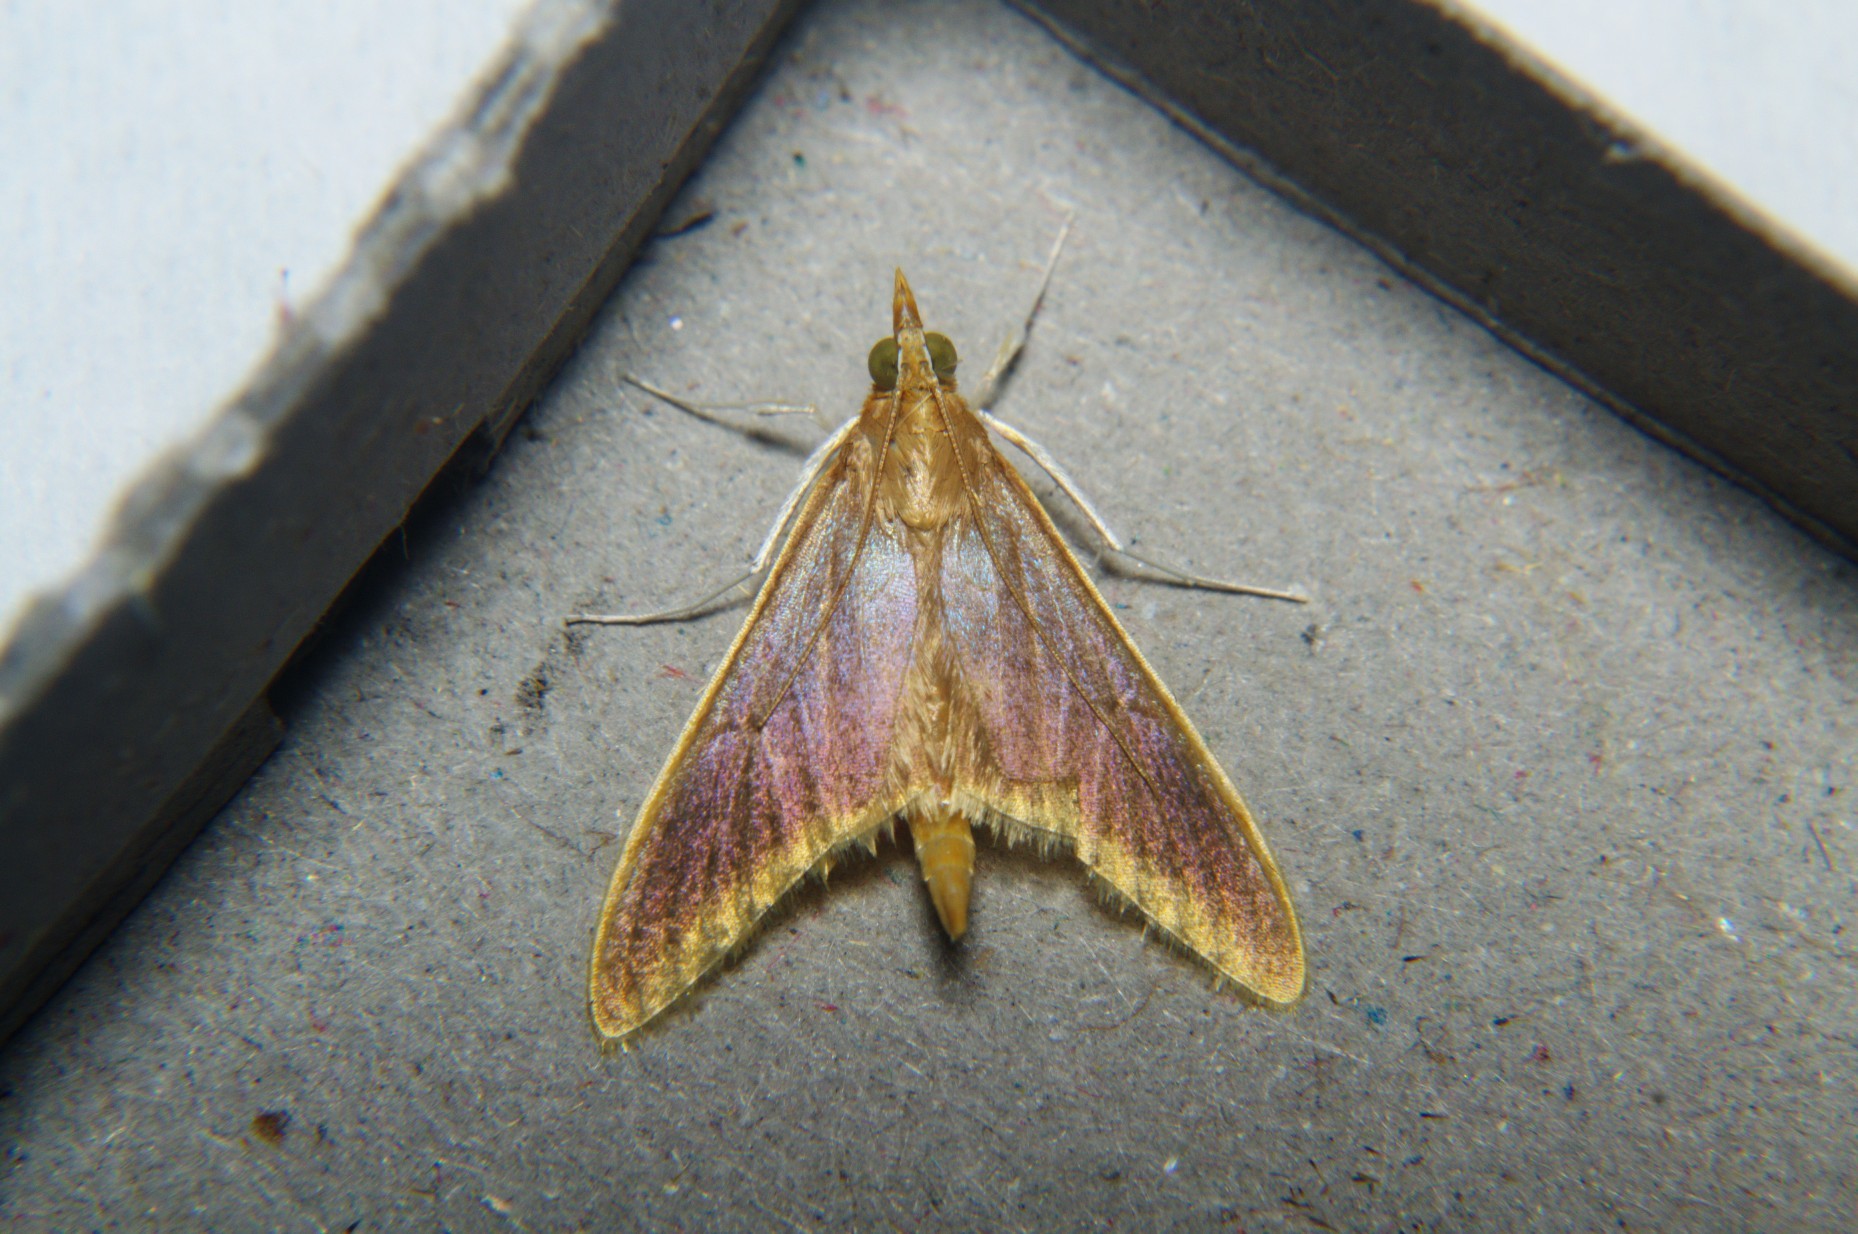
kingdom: Animalia
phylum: Arthropoda
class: Insecta
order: Lepidoptera
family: Crambidae
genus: Circobotys
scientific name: Circobotys aurealis
